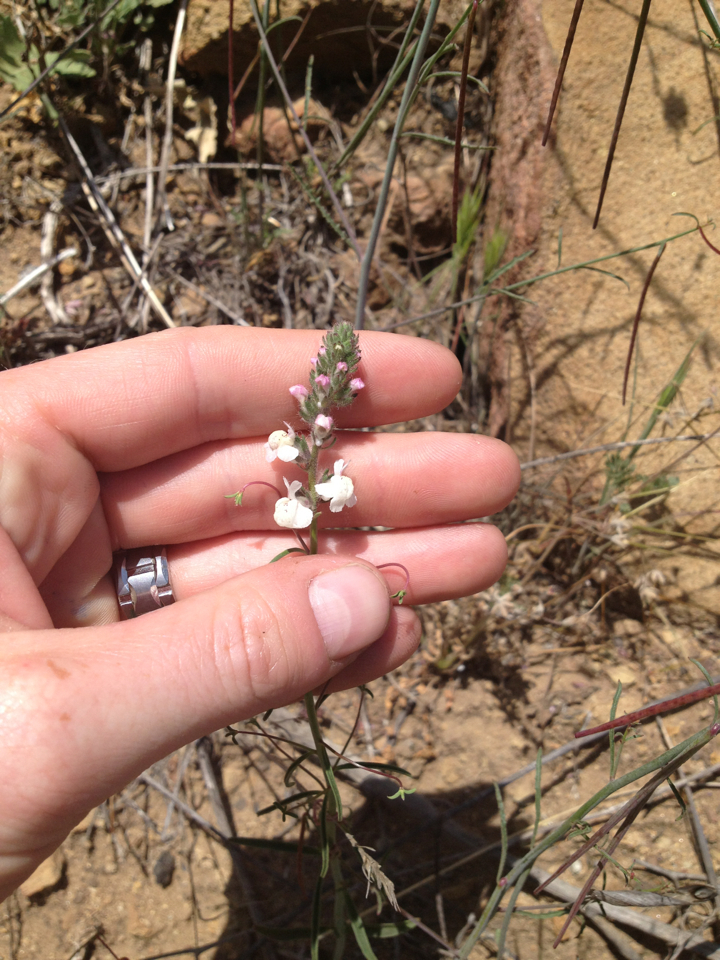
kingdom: Plantae
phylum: Tracheophyta
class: Magnoliopsida
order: Lamiales
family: Plantaginaceae
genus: Sairocarpus
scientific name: Sairocarpus coulterianus
